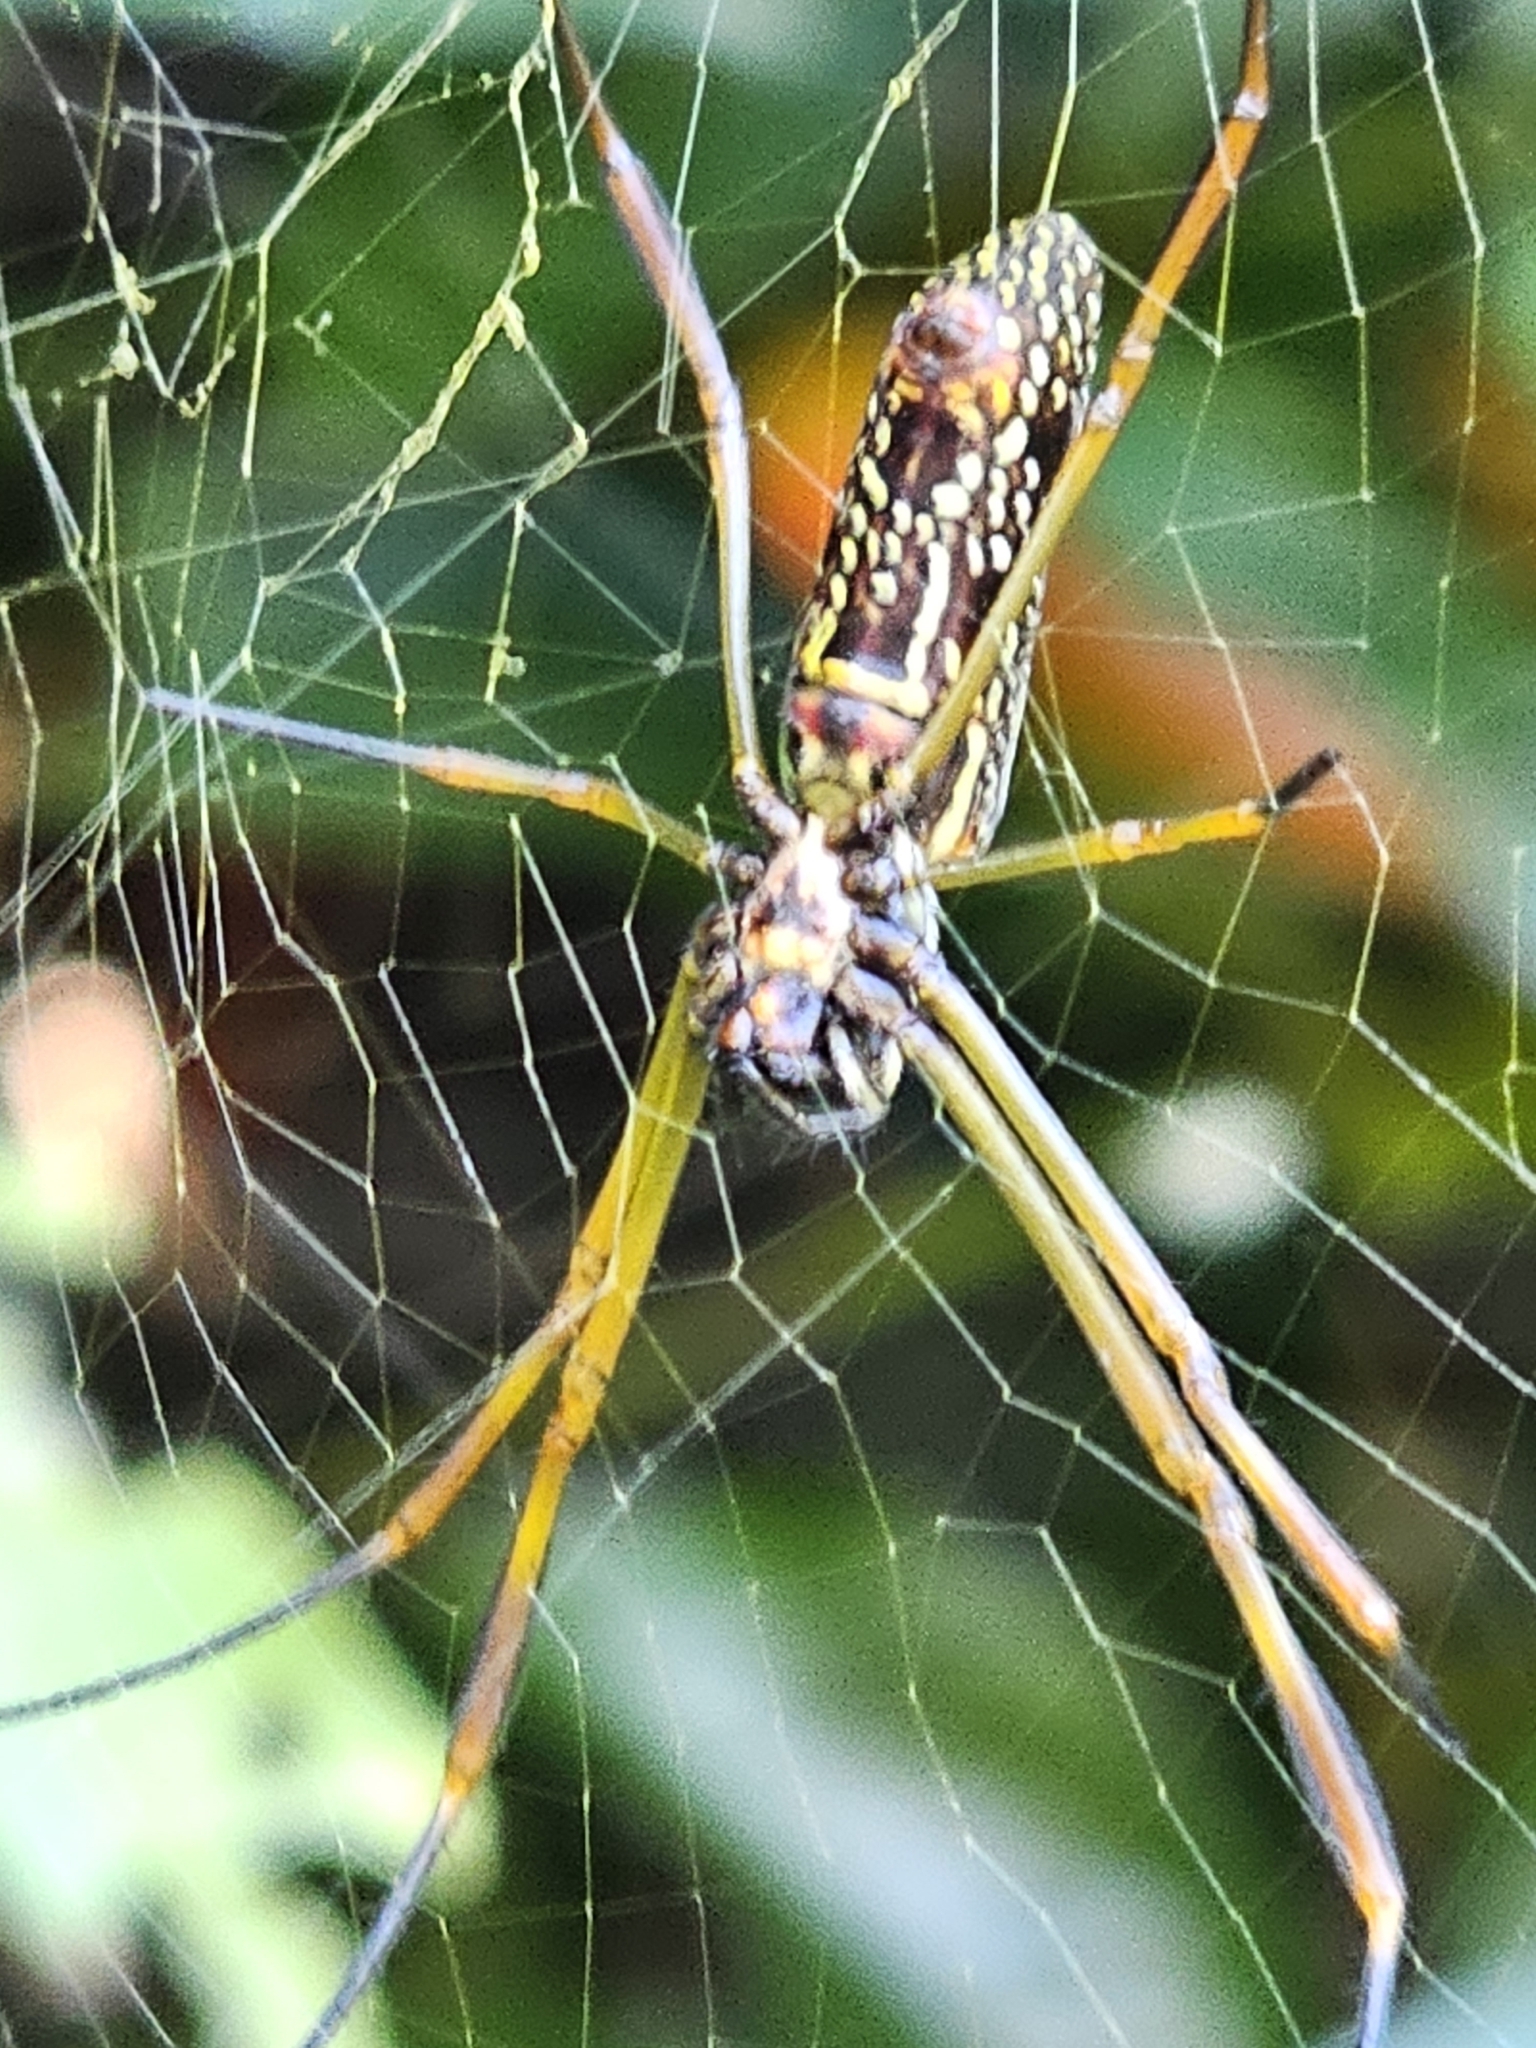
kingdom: Animalia
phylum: Arthropoda
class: Arachnida
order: Araneae
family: Araneidae
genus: Trichonephila
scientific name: Trichonephila clavipes
